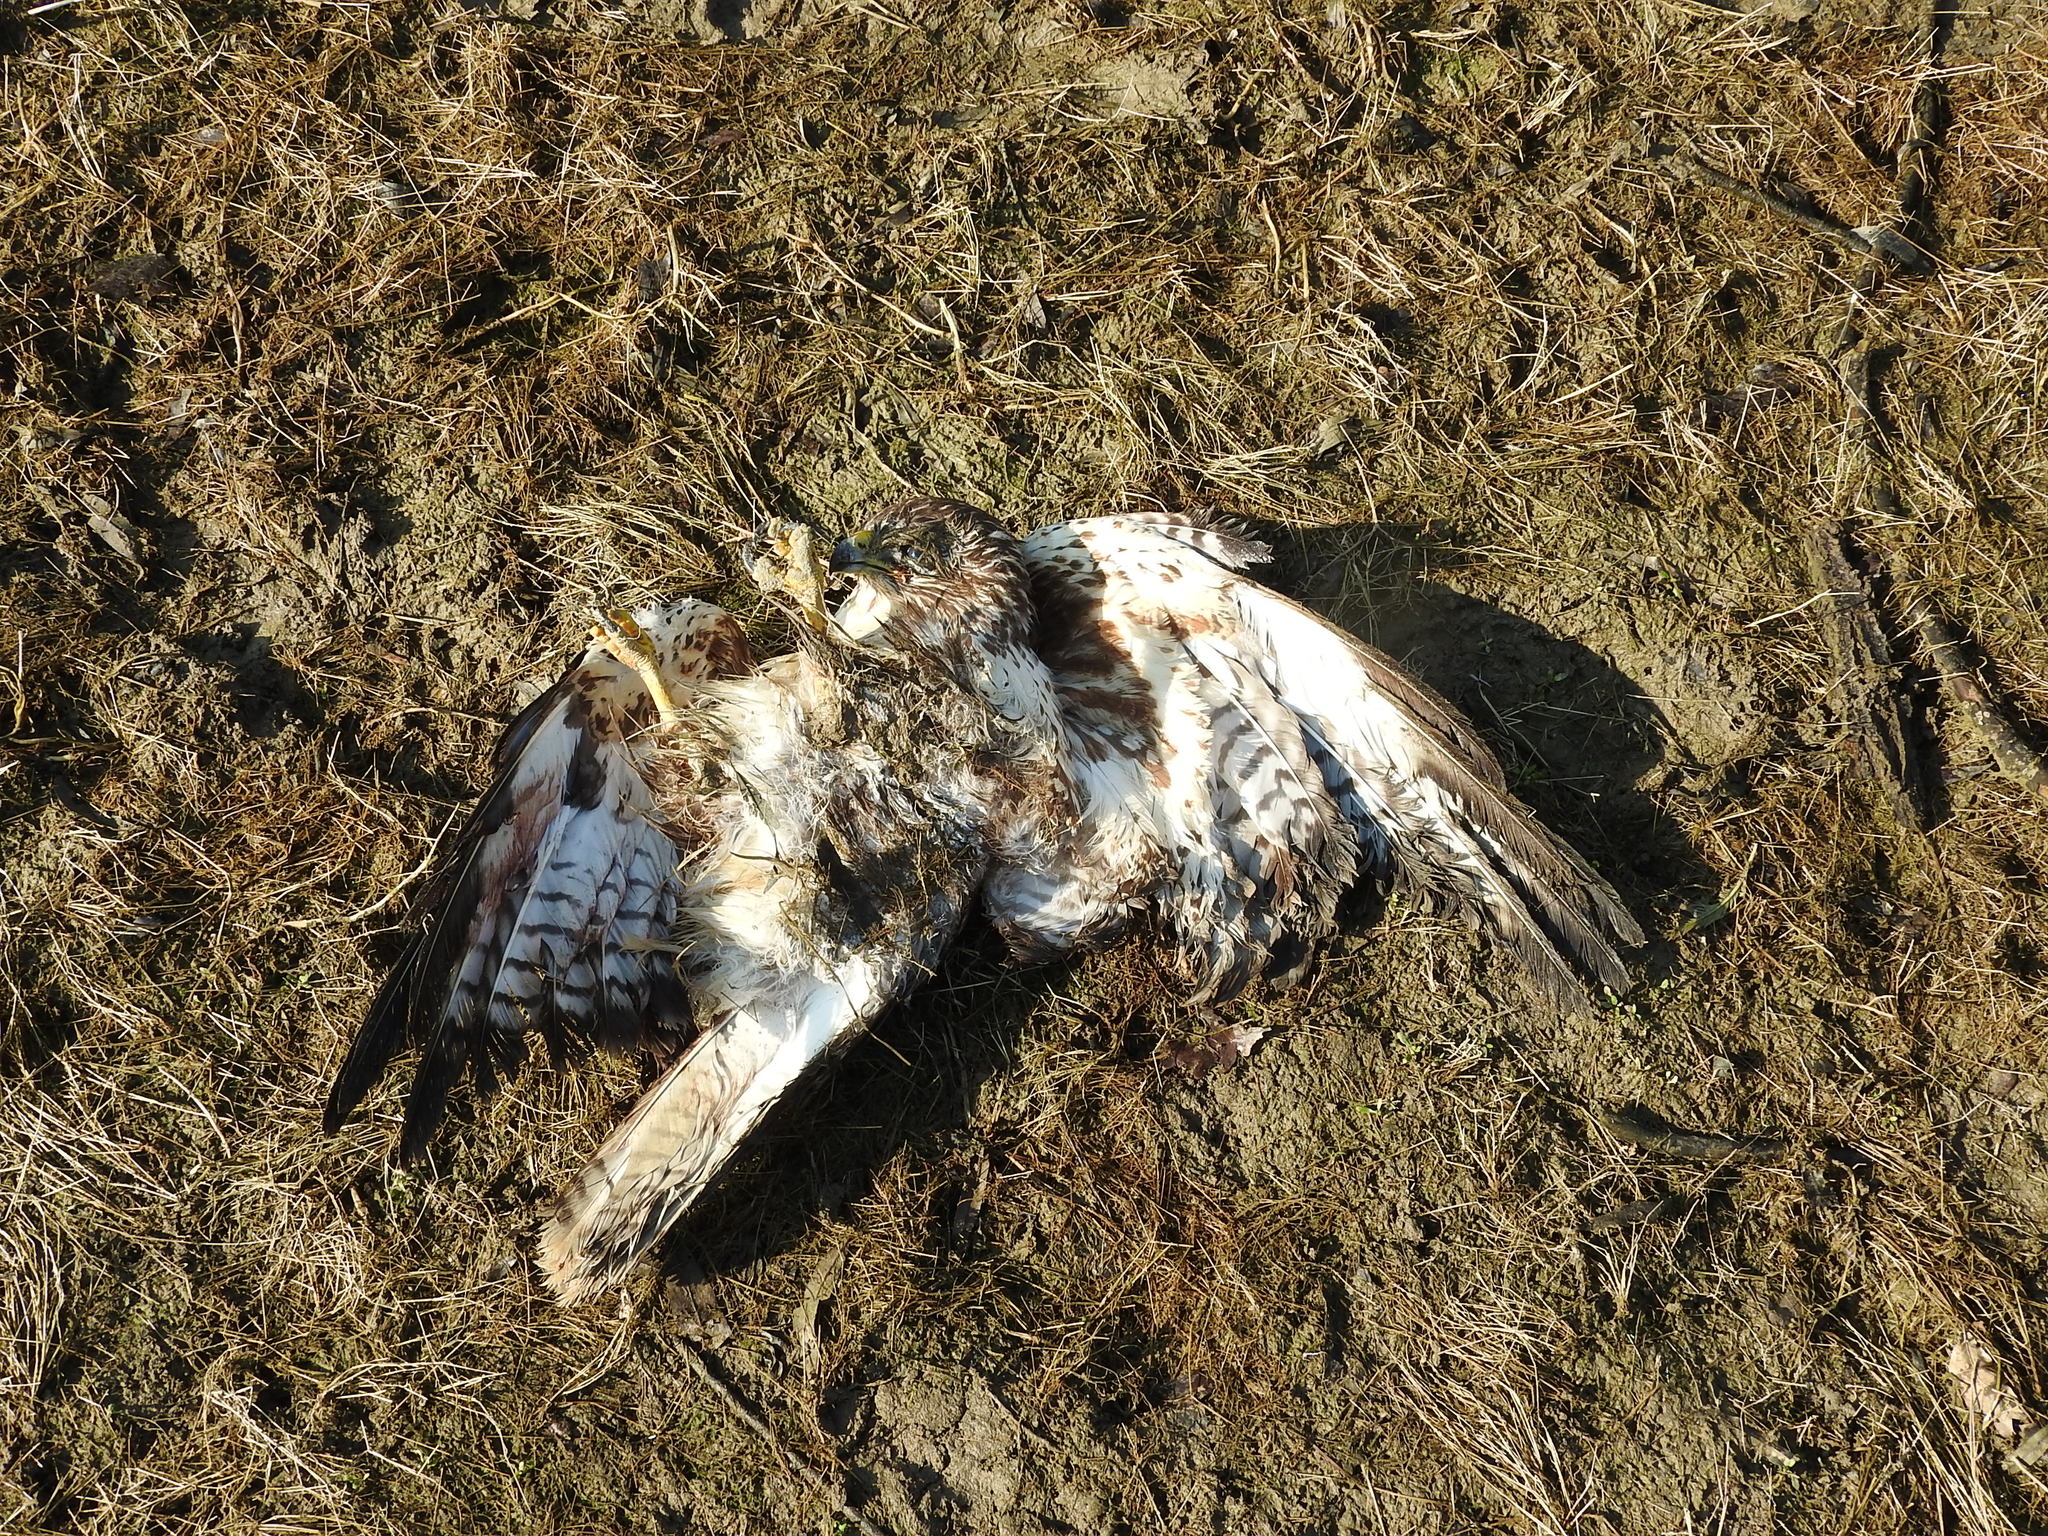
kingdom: Animalia
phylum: Chordata
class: Aves
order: Accipitriformes
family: Accipitridae
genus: Buteo
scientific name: Buteo buteo
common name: Common buzzard
